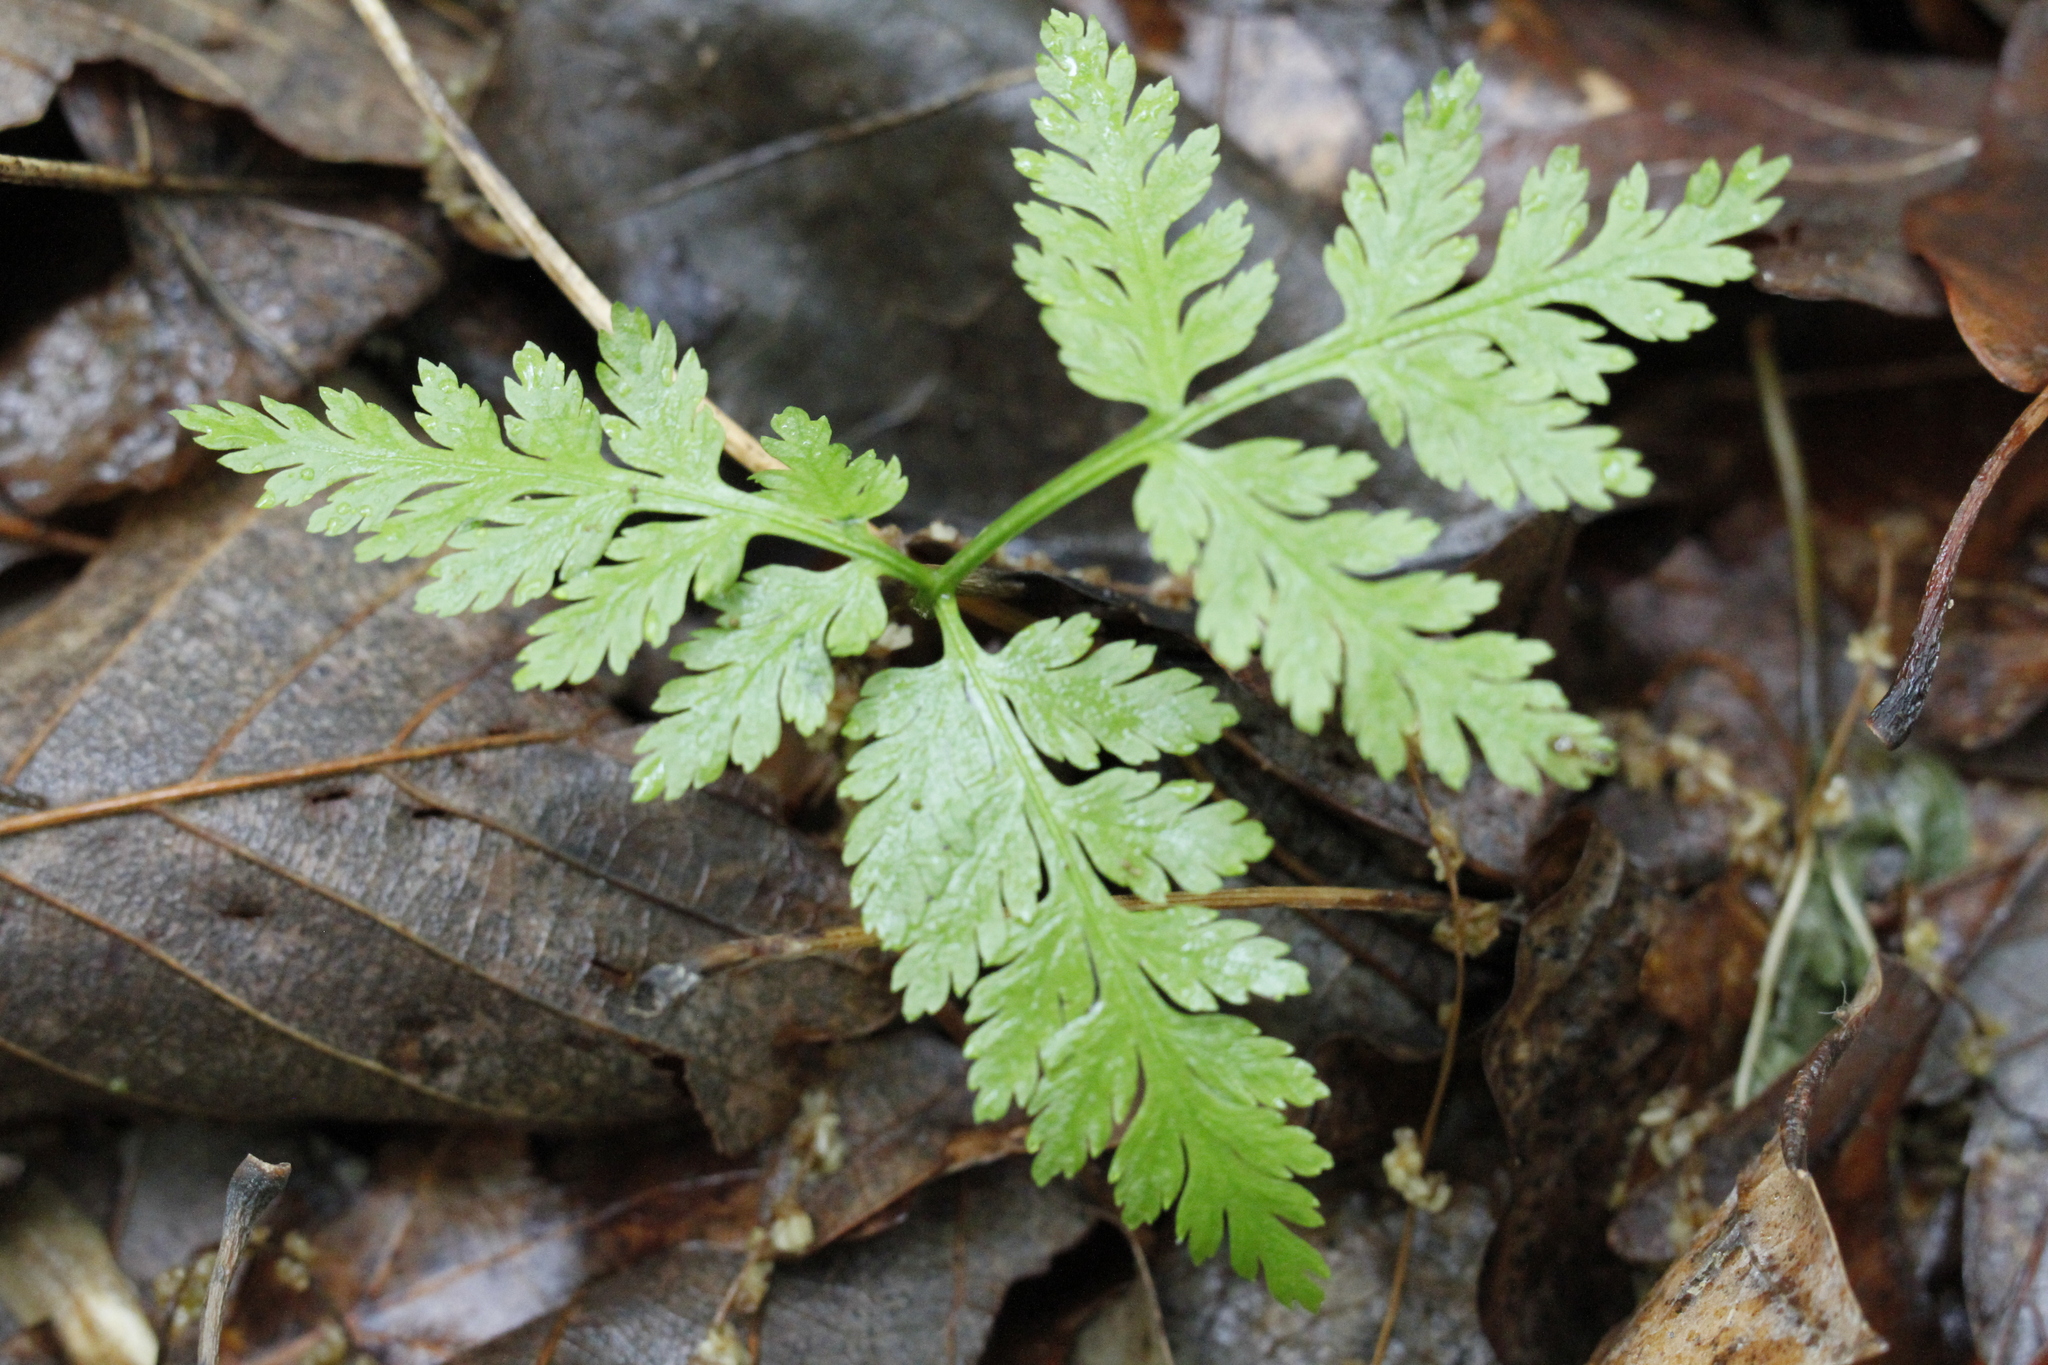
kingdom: Plantae
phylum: Tracheophyta
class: Polypodiopsida
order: Ophioglossales
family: Ophioglossaceae
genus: Botrypus
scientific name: Botrypus virginianus
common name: Common grapefern
